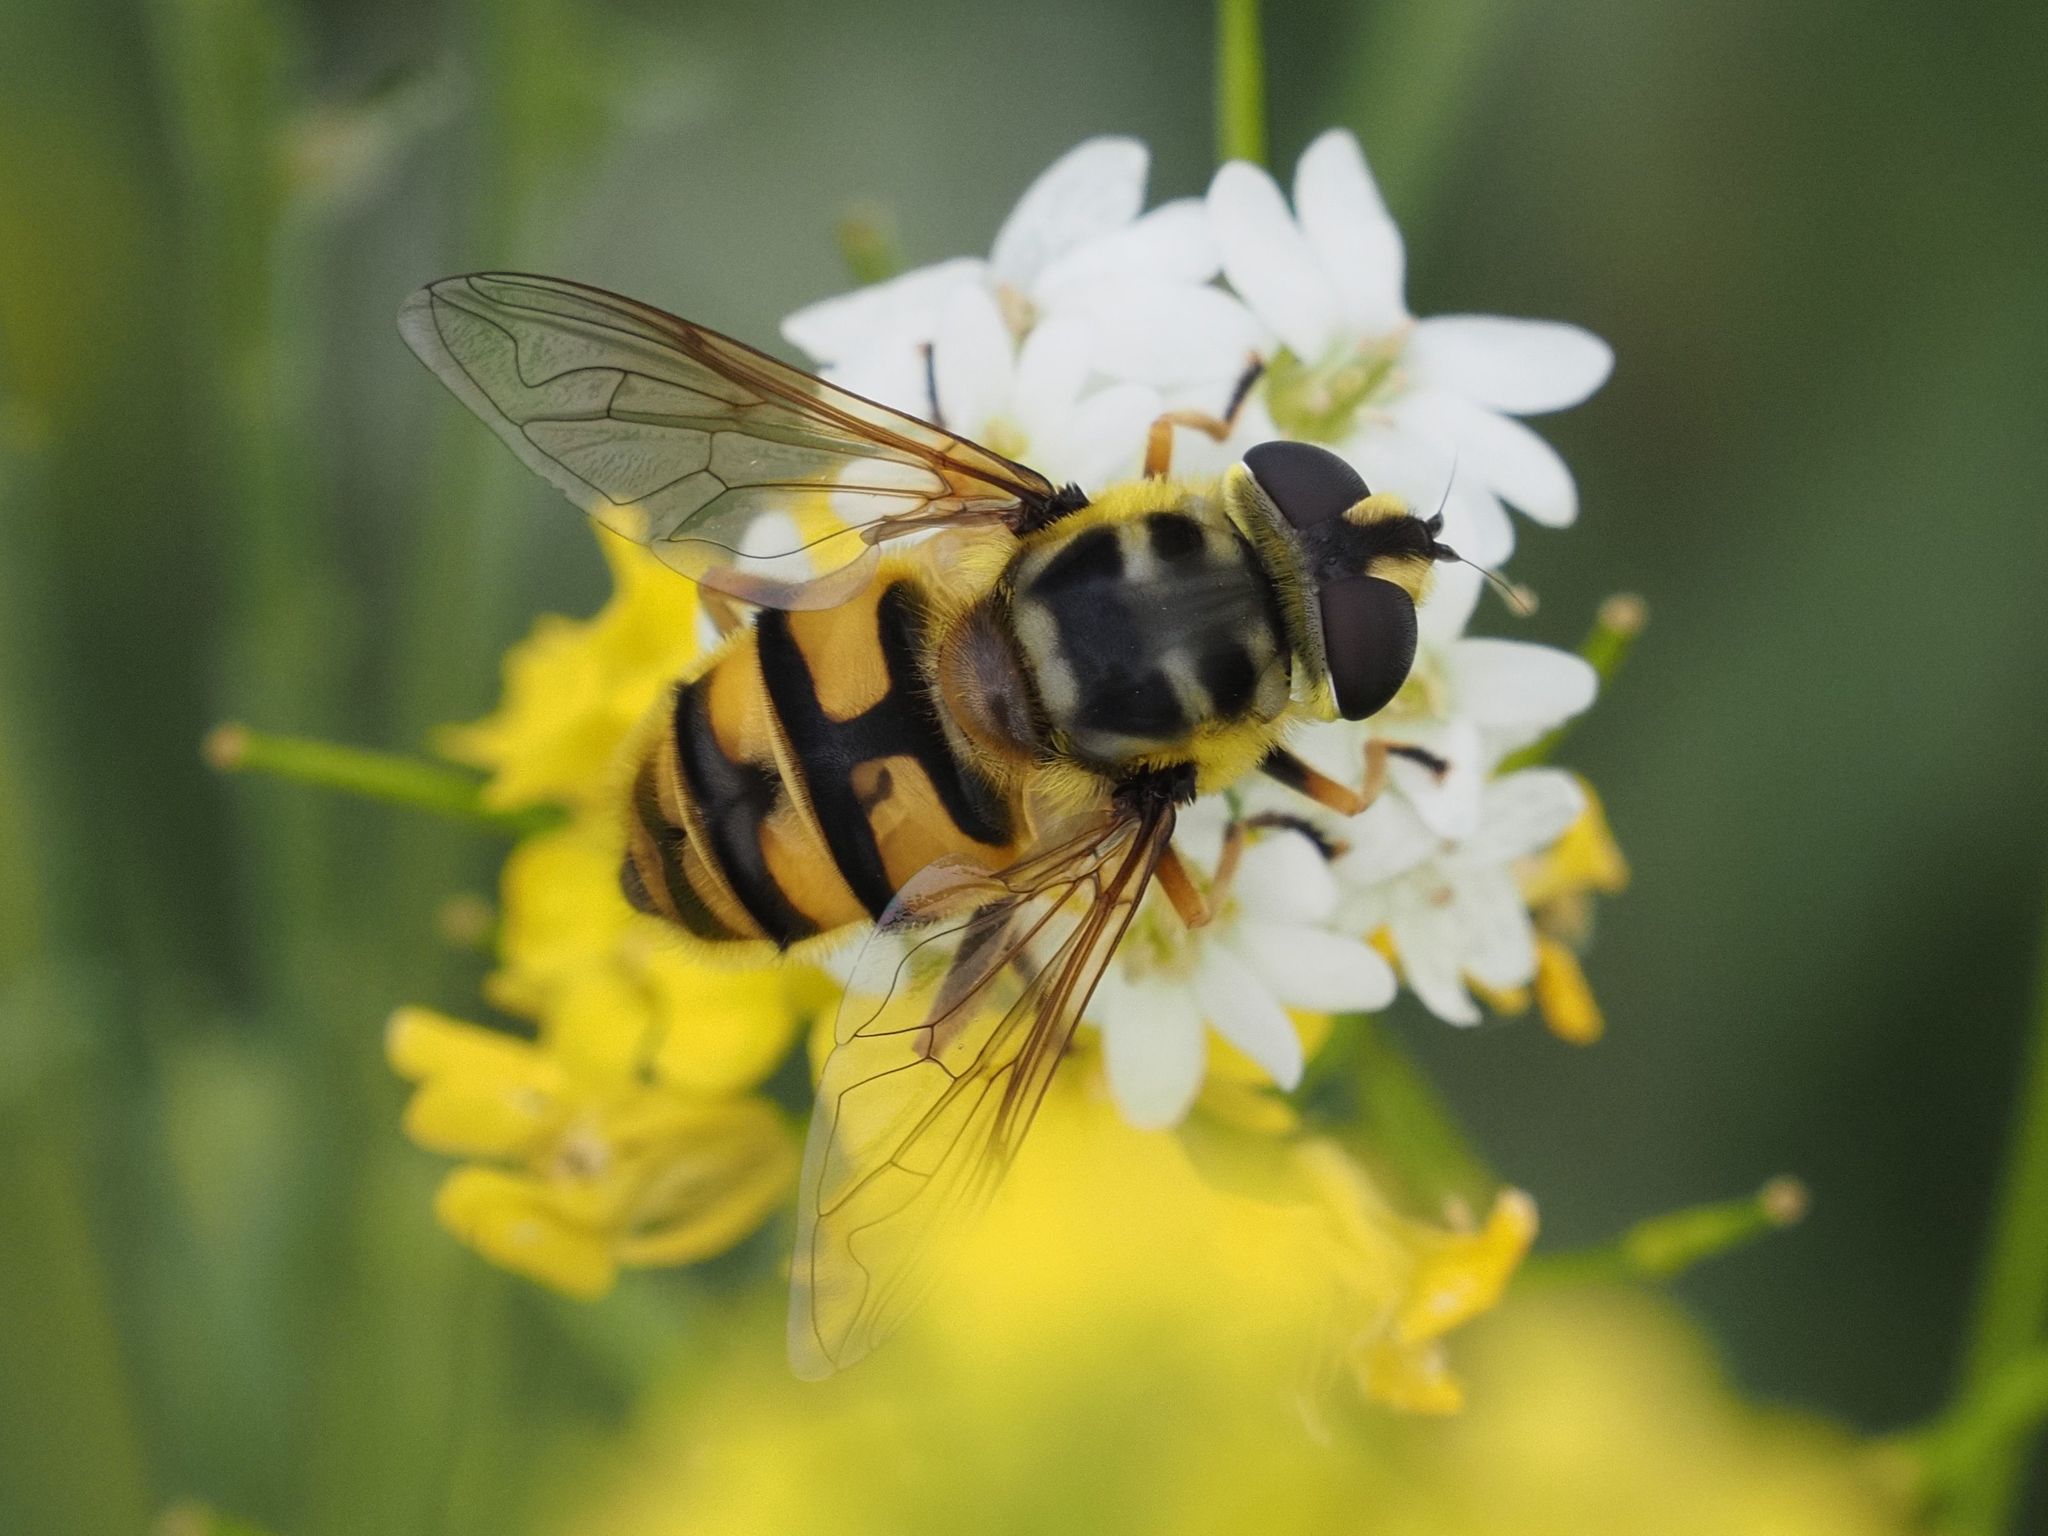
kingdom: Animalia
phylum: Arthropoda
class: Insecta
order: Diptera
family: Syrphidae
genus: Myathropa
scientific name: Myathropa florea
